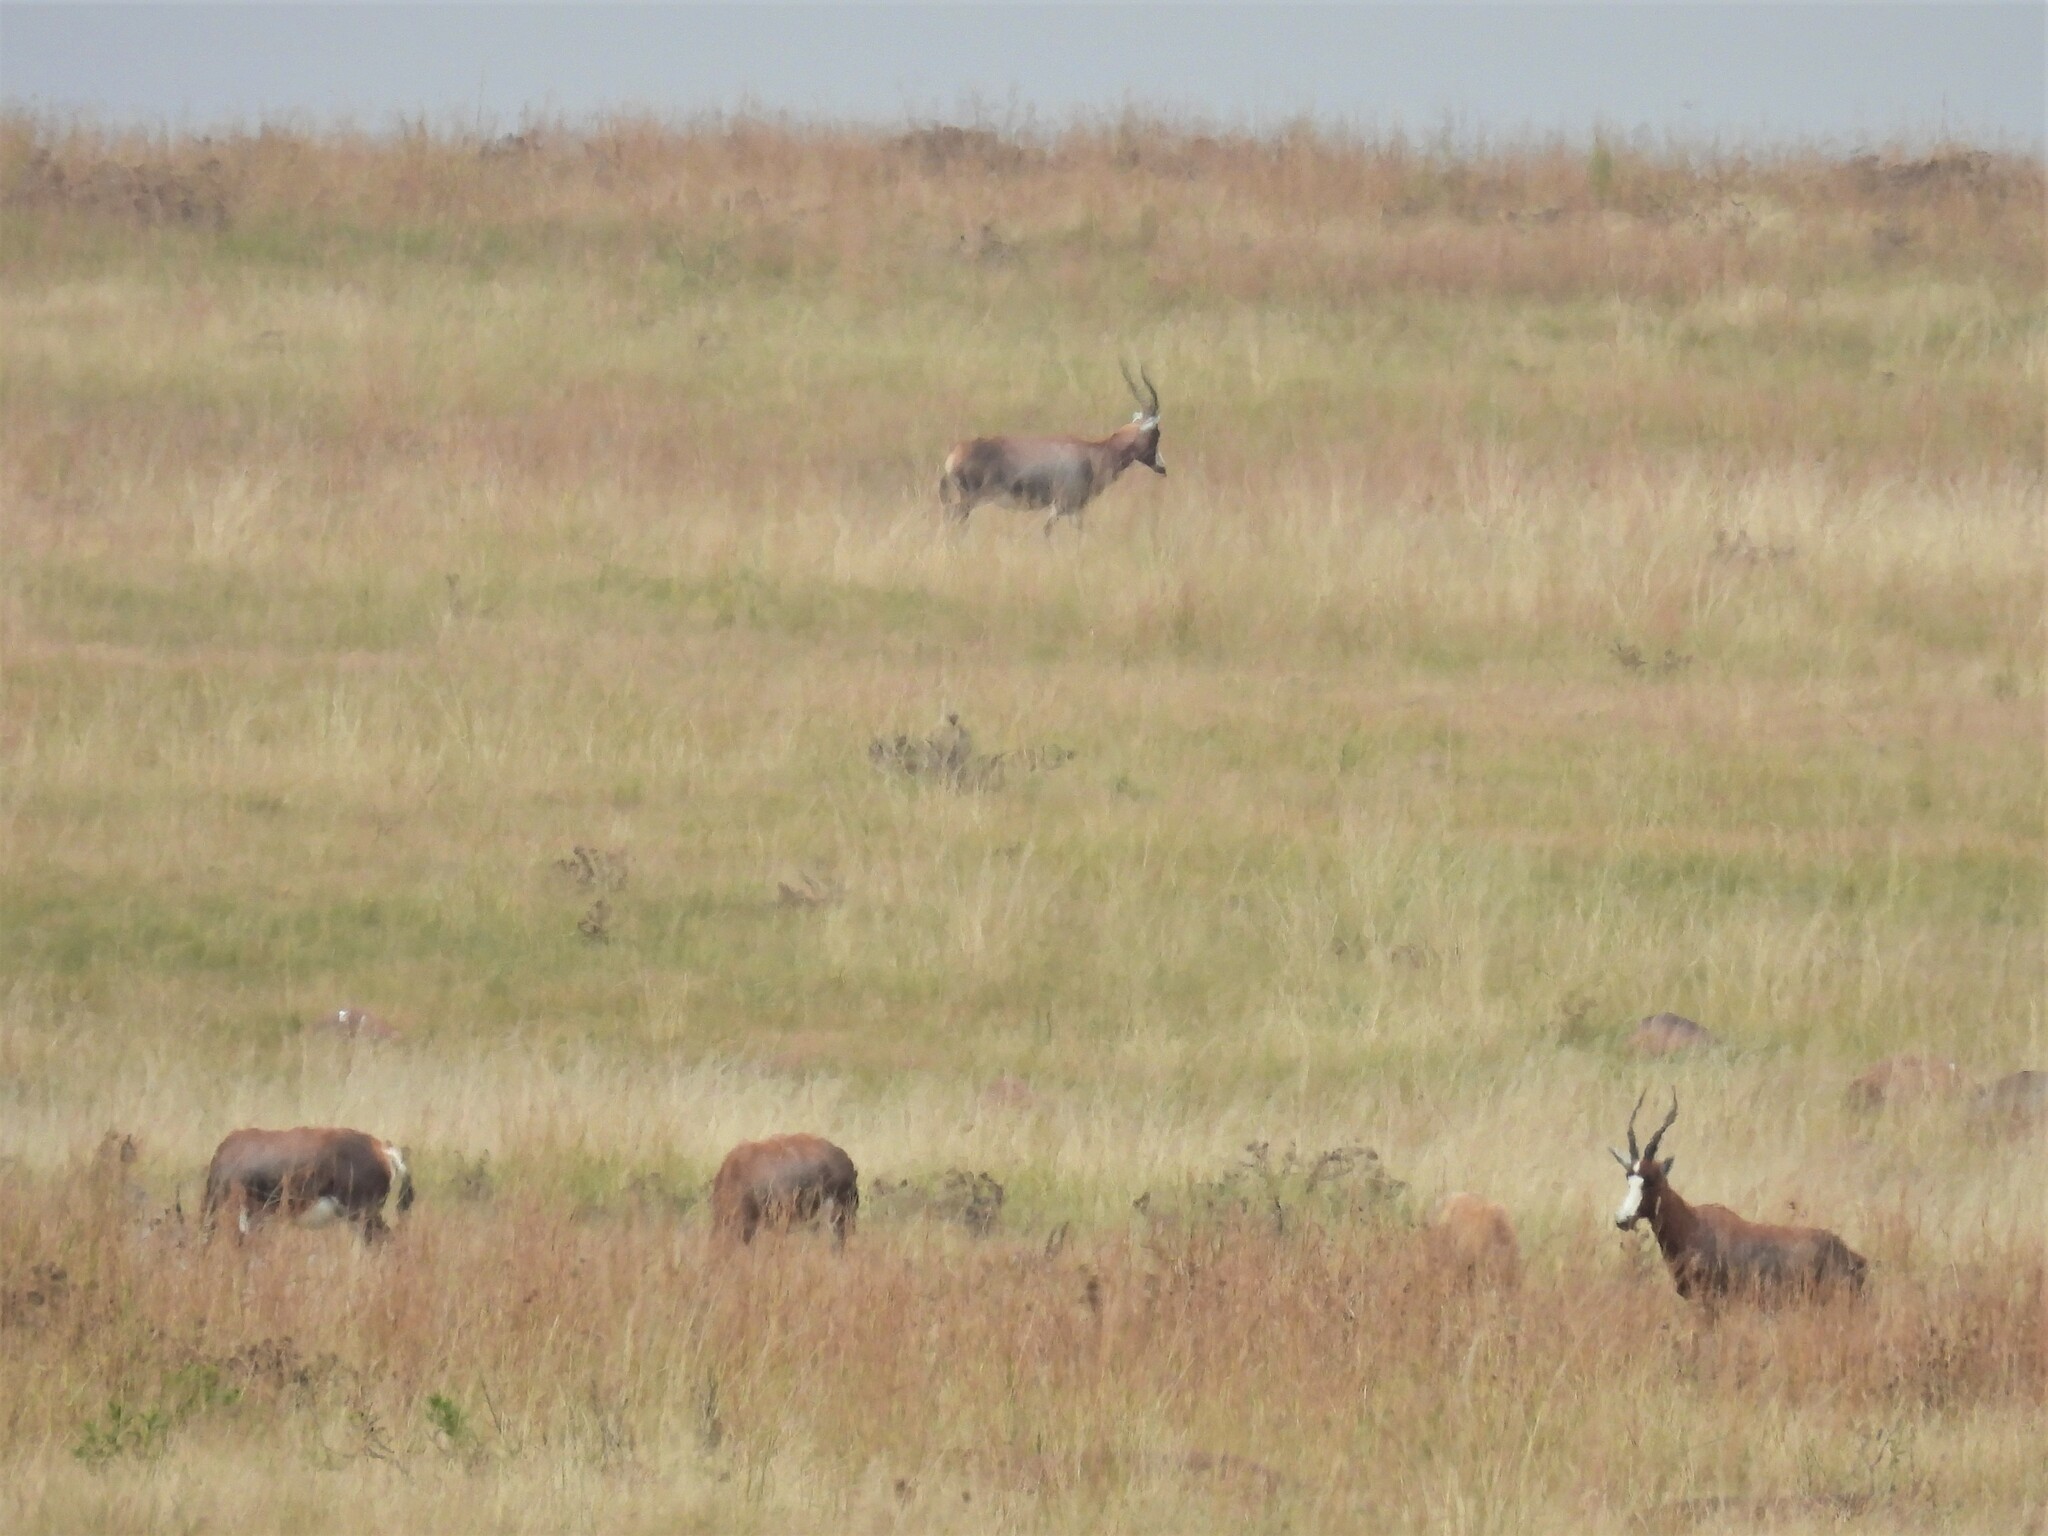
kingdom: Animalia
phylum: Chordata
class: Mammalia
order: Artiodactyla
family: Bovidae
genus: Damaliscus
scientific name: Damaliscus pygargus
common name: Bontebok
